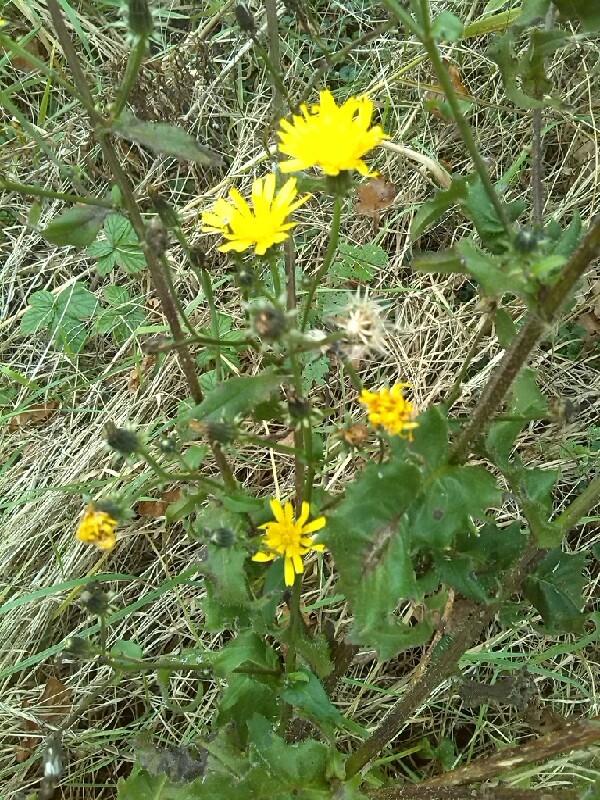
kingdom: Plantae
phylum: Tracheophyta
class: Magnoliopsida
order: Asterales
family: Asteraceae
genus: Picris
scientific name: Picris hieracioides
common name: Hawkweed oxtongue
